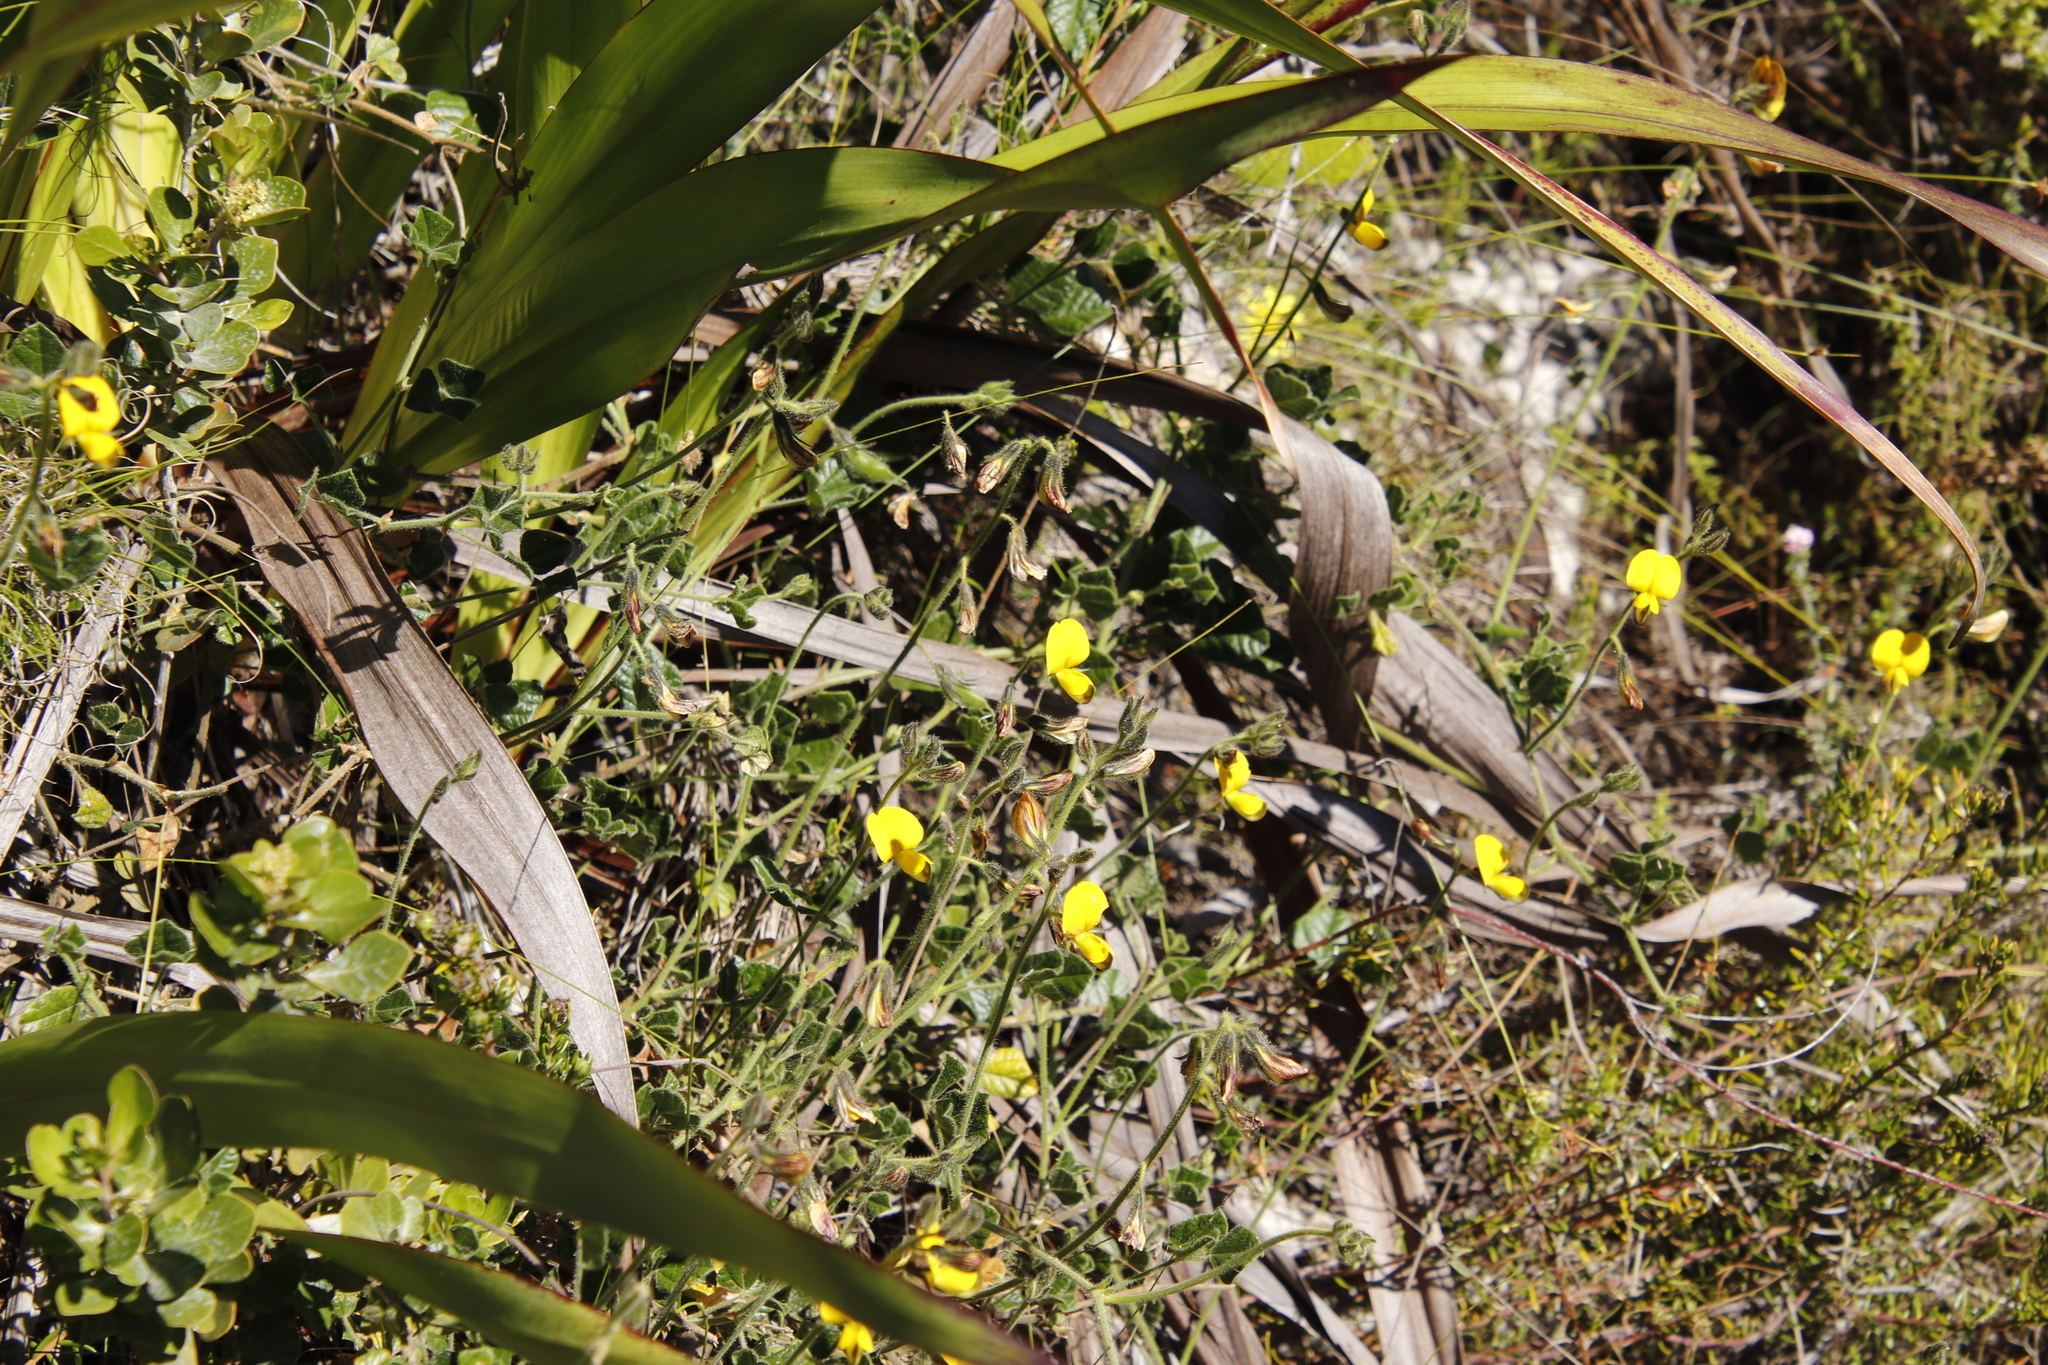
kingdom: Plantae
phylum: Tracheophyta
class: Magnoliopsida
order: Fabales
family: Fabaceae
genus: Bolusafra
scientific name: Bolusafra bituminosa
